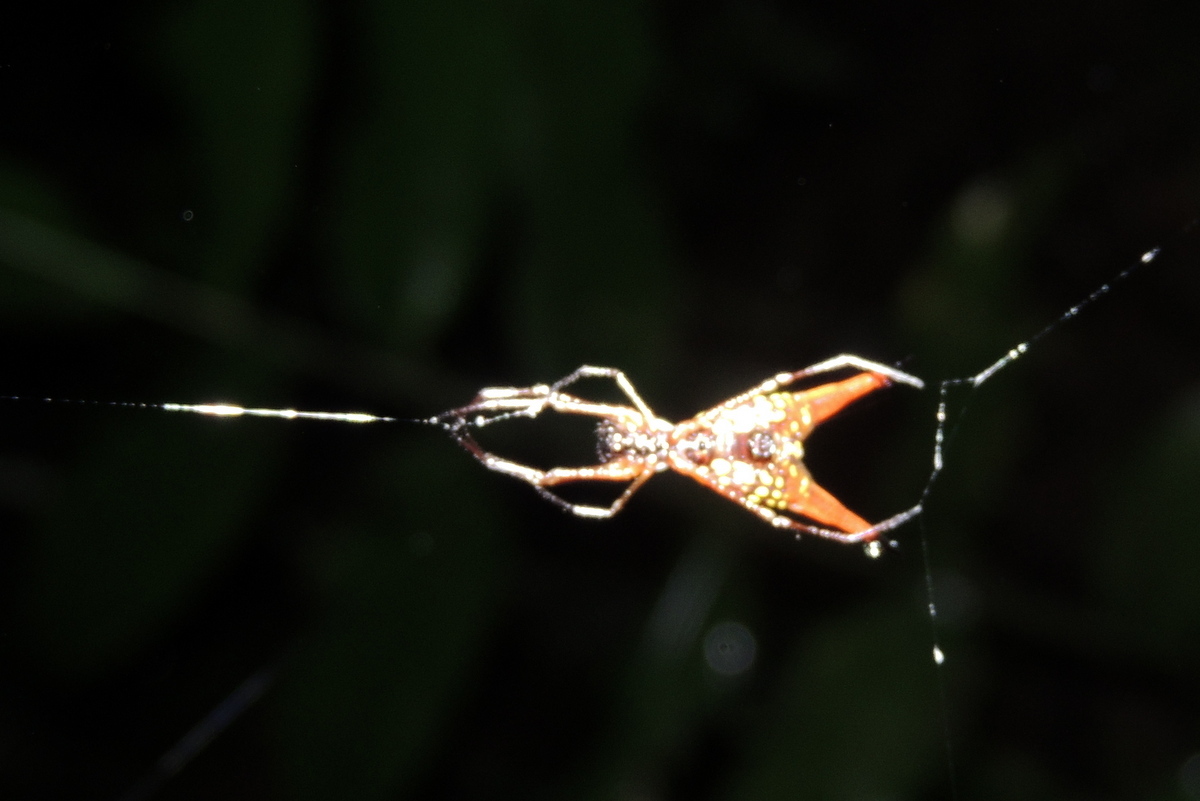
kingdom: Animalia
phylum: Arthropoda
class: Arachnida
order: Araneae
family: Araneidae
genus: Micrathena
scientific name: Micrathena brevipes
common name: Orb weavers
